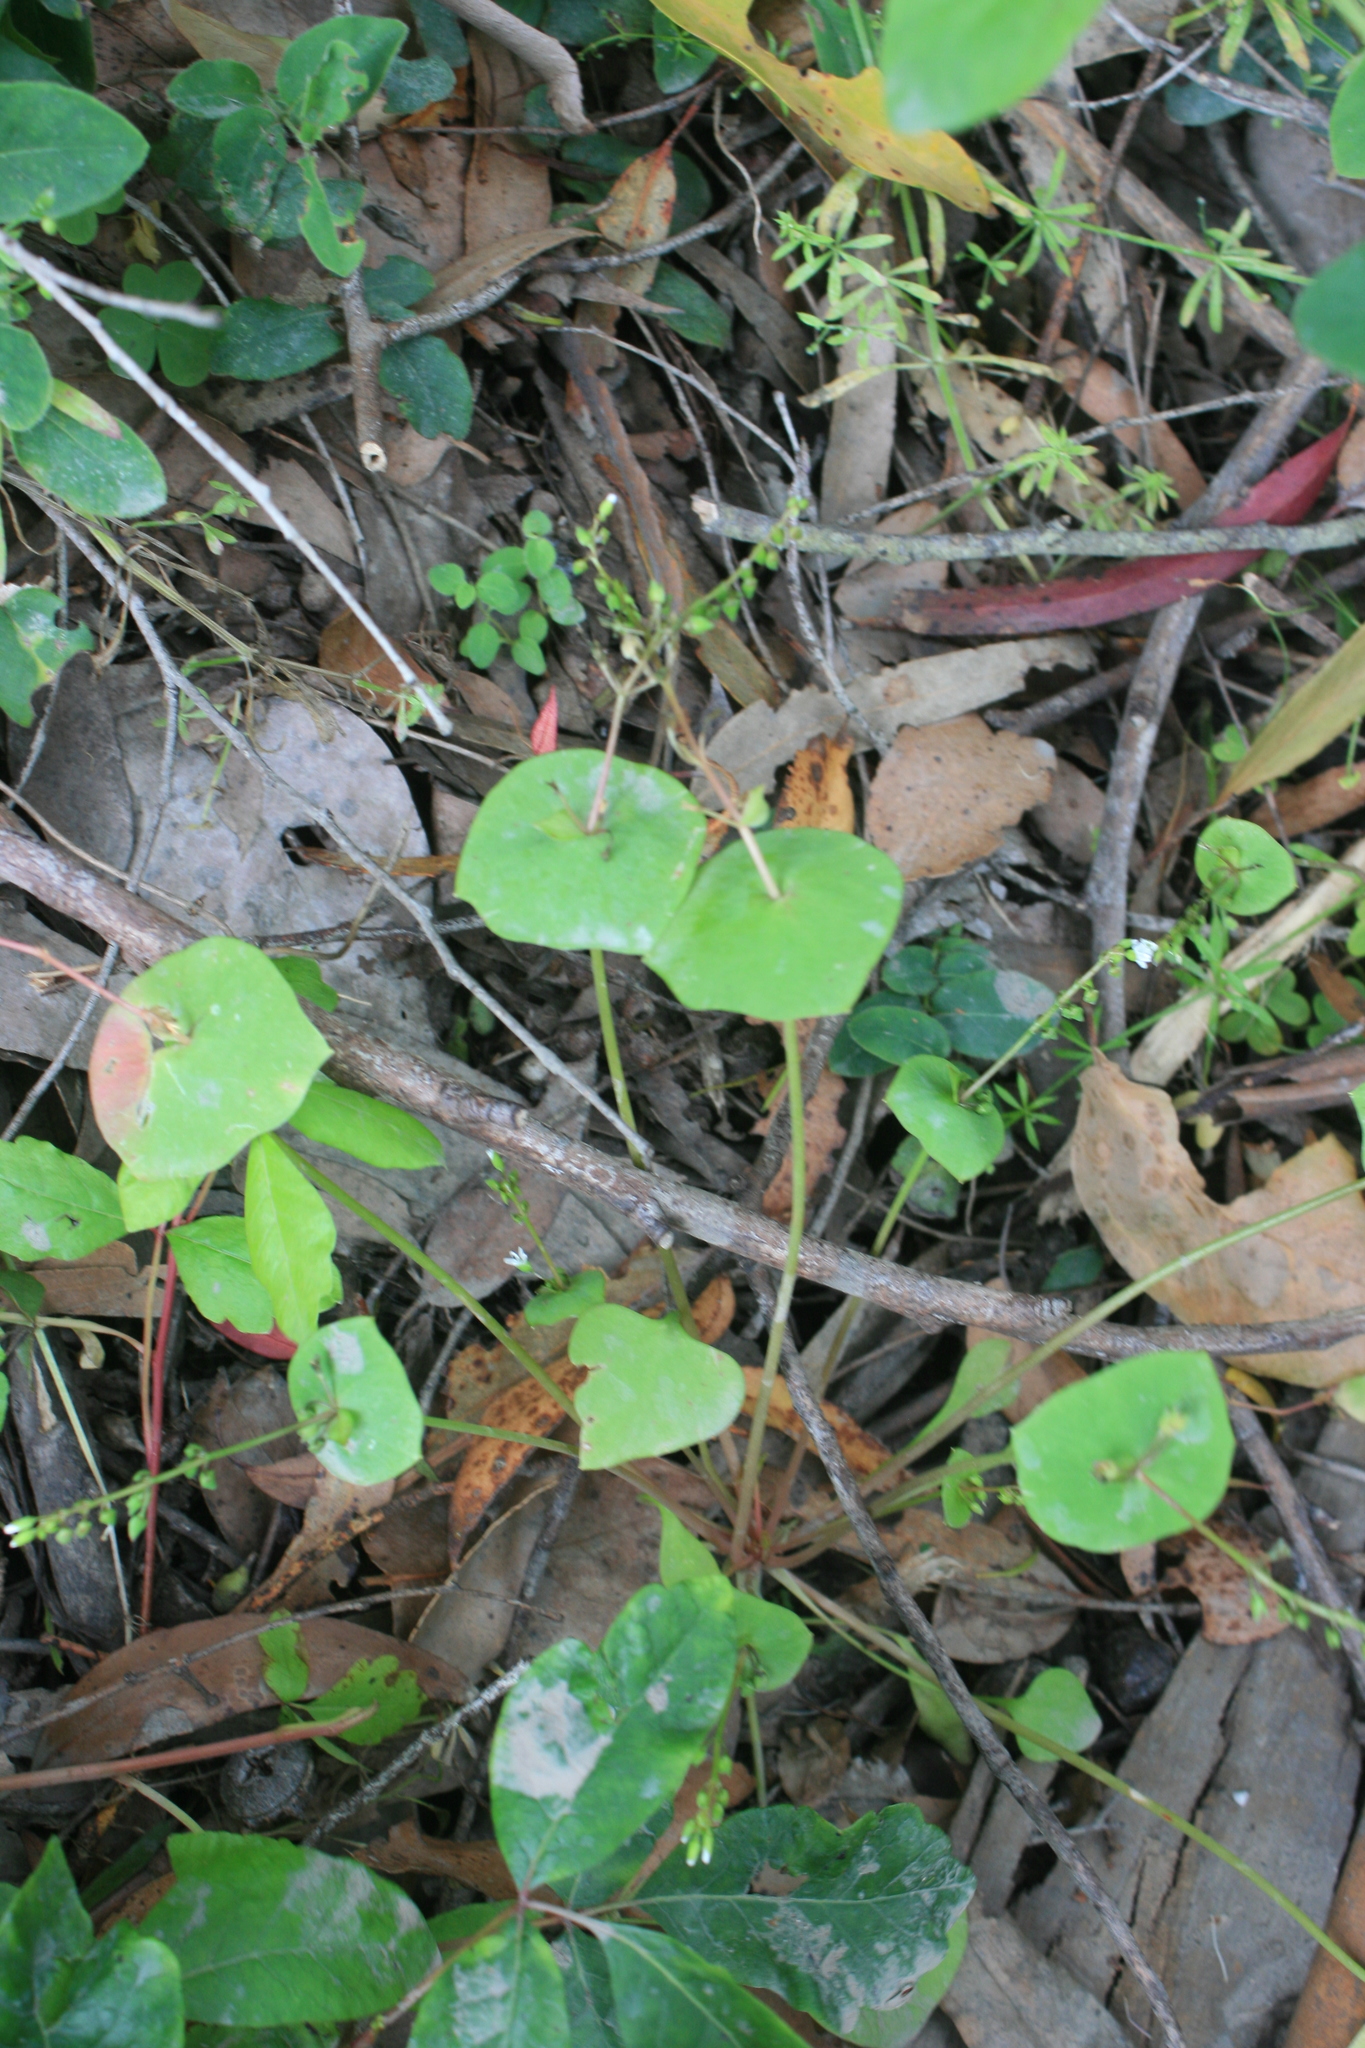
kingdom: Plantae
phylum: Tracheophyta
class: Magnoliopsida
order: Caryophyllales
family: Montiaceae
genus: Claytonia
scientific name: Claytonia perfoliata
